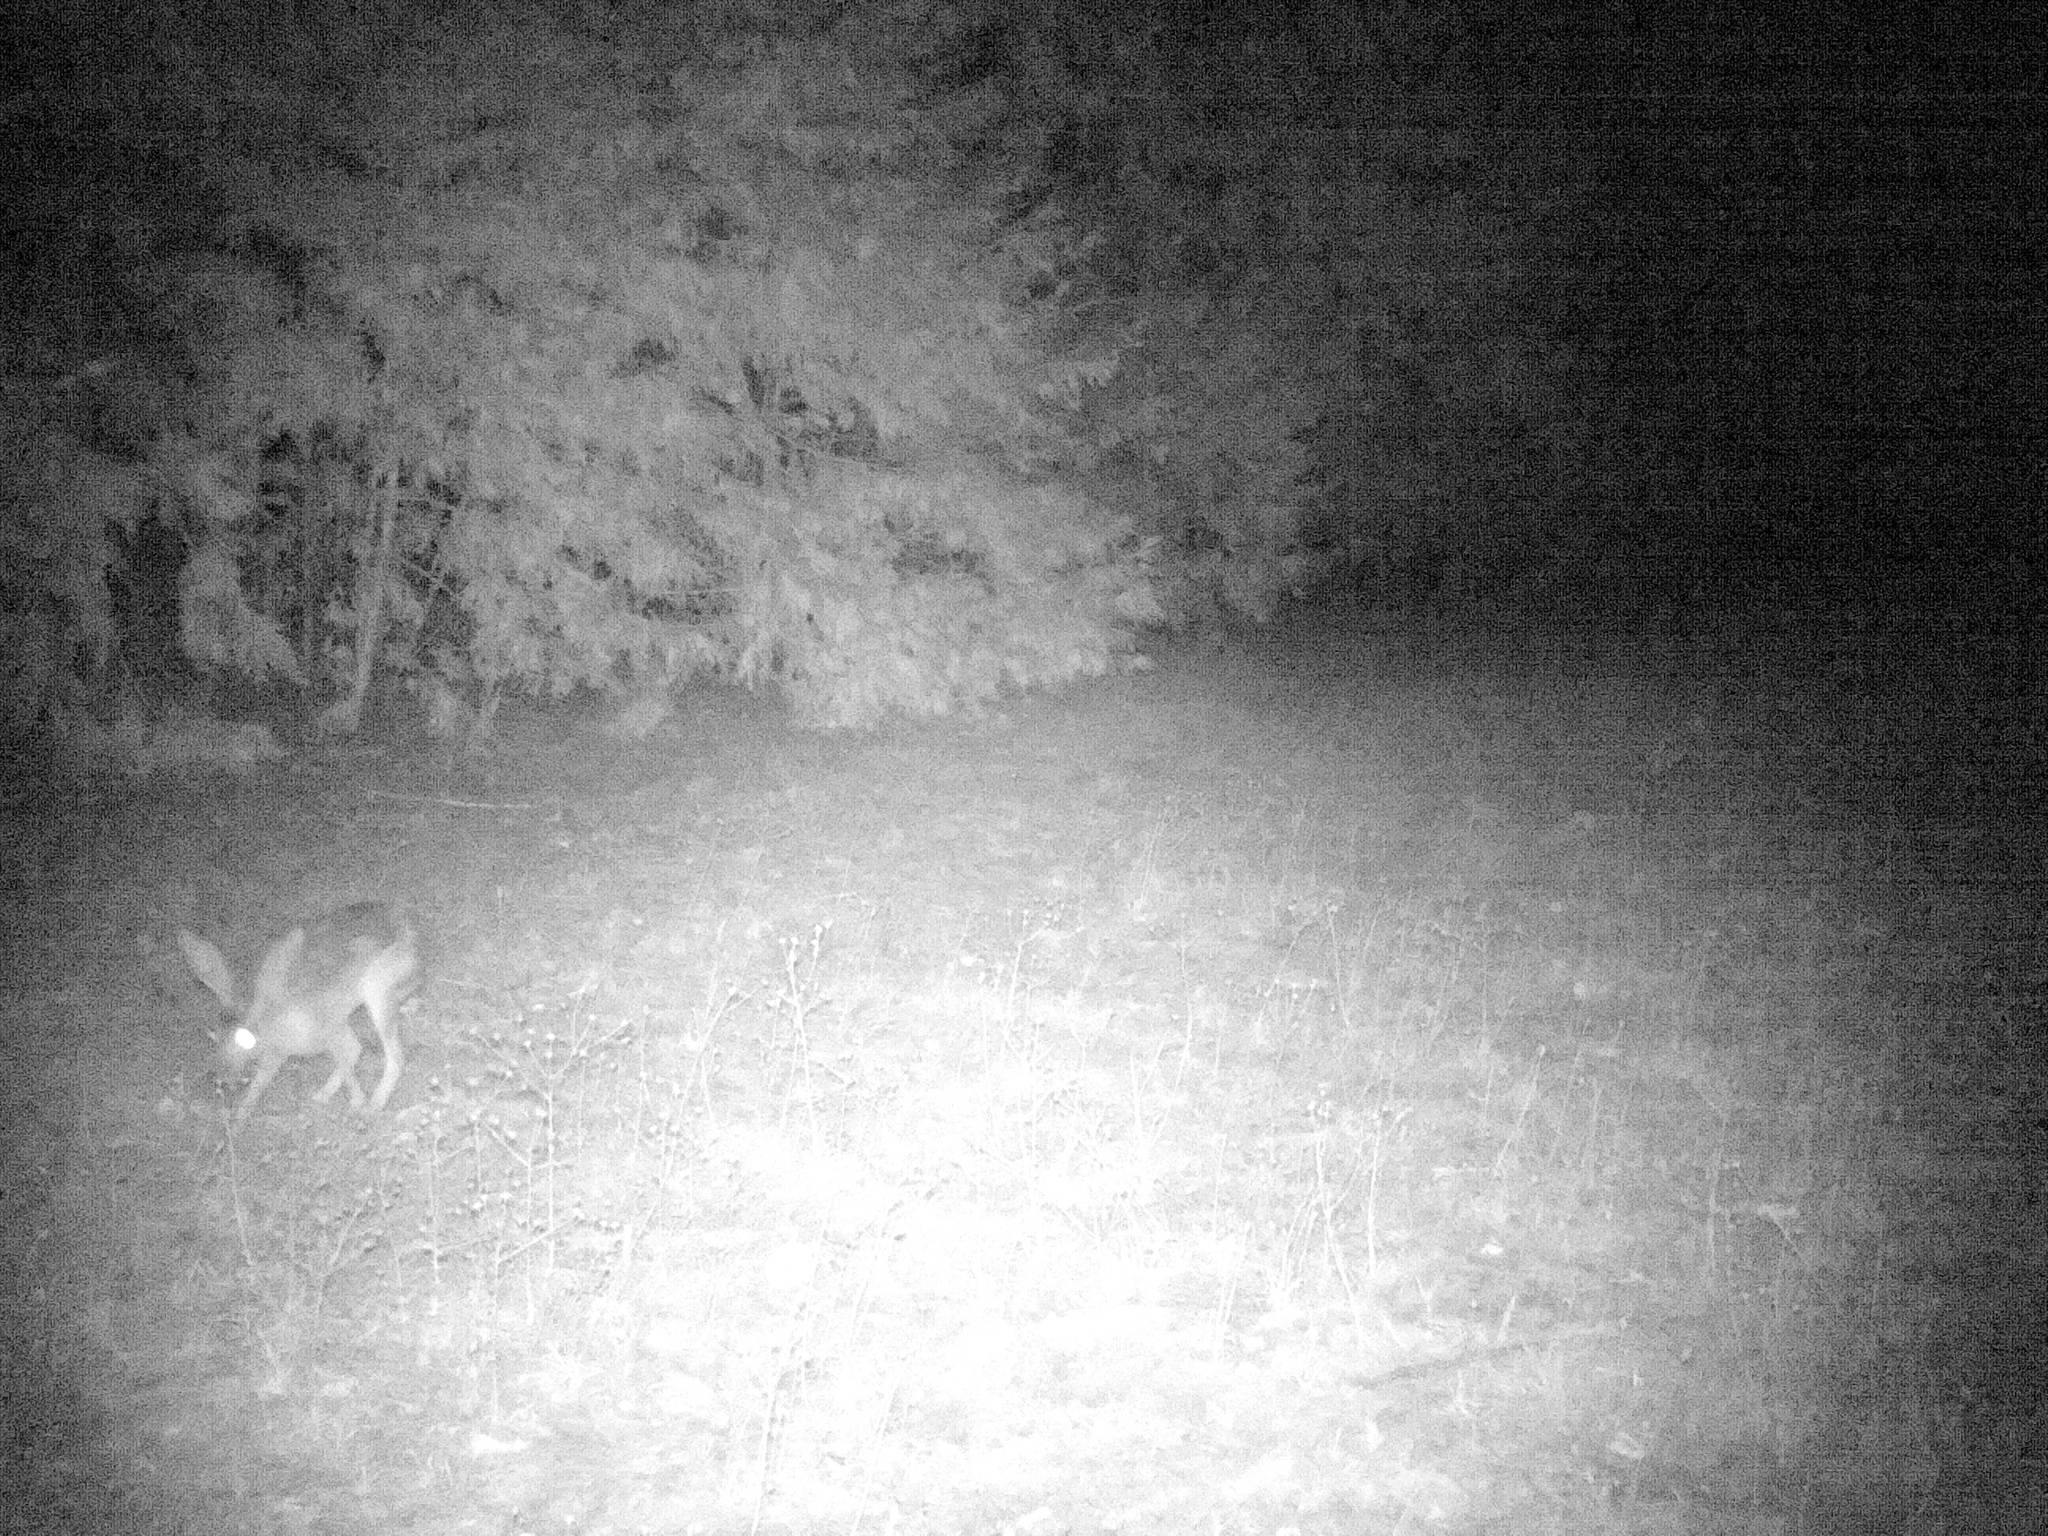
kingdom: Animalia
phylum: Chordata
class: Mammalia
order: Lagomorpha
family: Leporidae
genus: Lepus
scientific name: Lepus californicus
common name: Black-tailed jackrabbit
